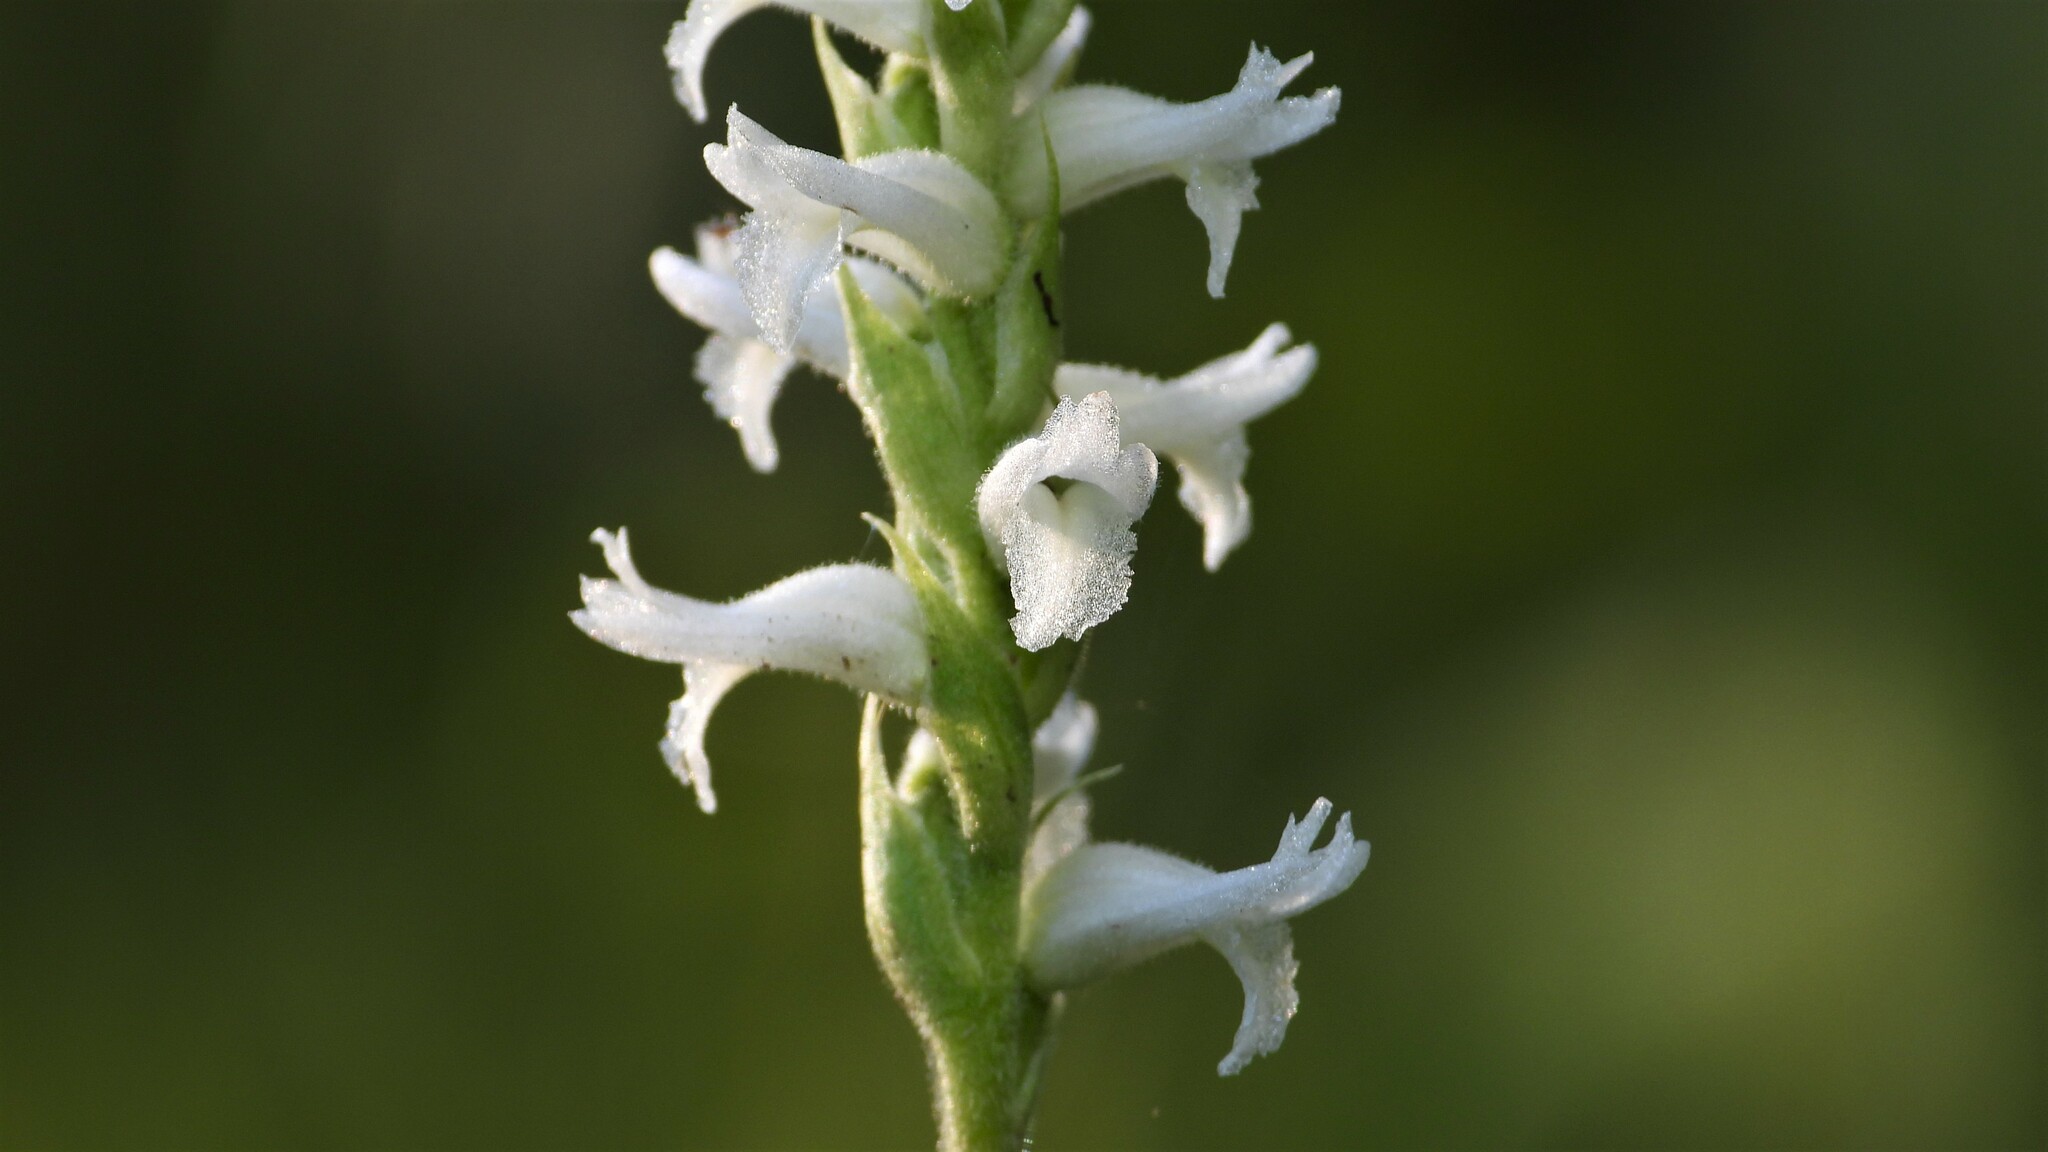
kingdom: Plantae
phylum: Tracheophyta
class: Liliopsida
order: Asparagales
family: Orchidaceae
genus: Spiranthes
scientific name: Spiranthes incurva
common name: Sphinx ladies'-tresses
